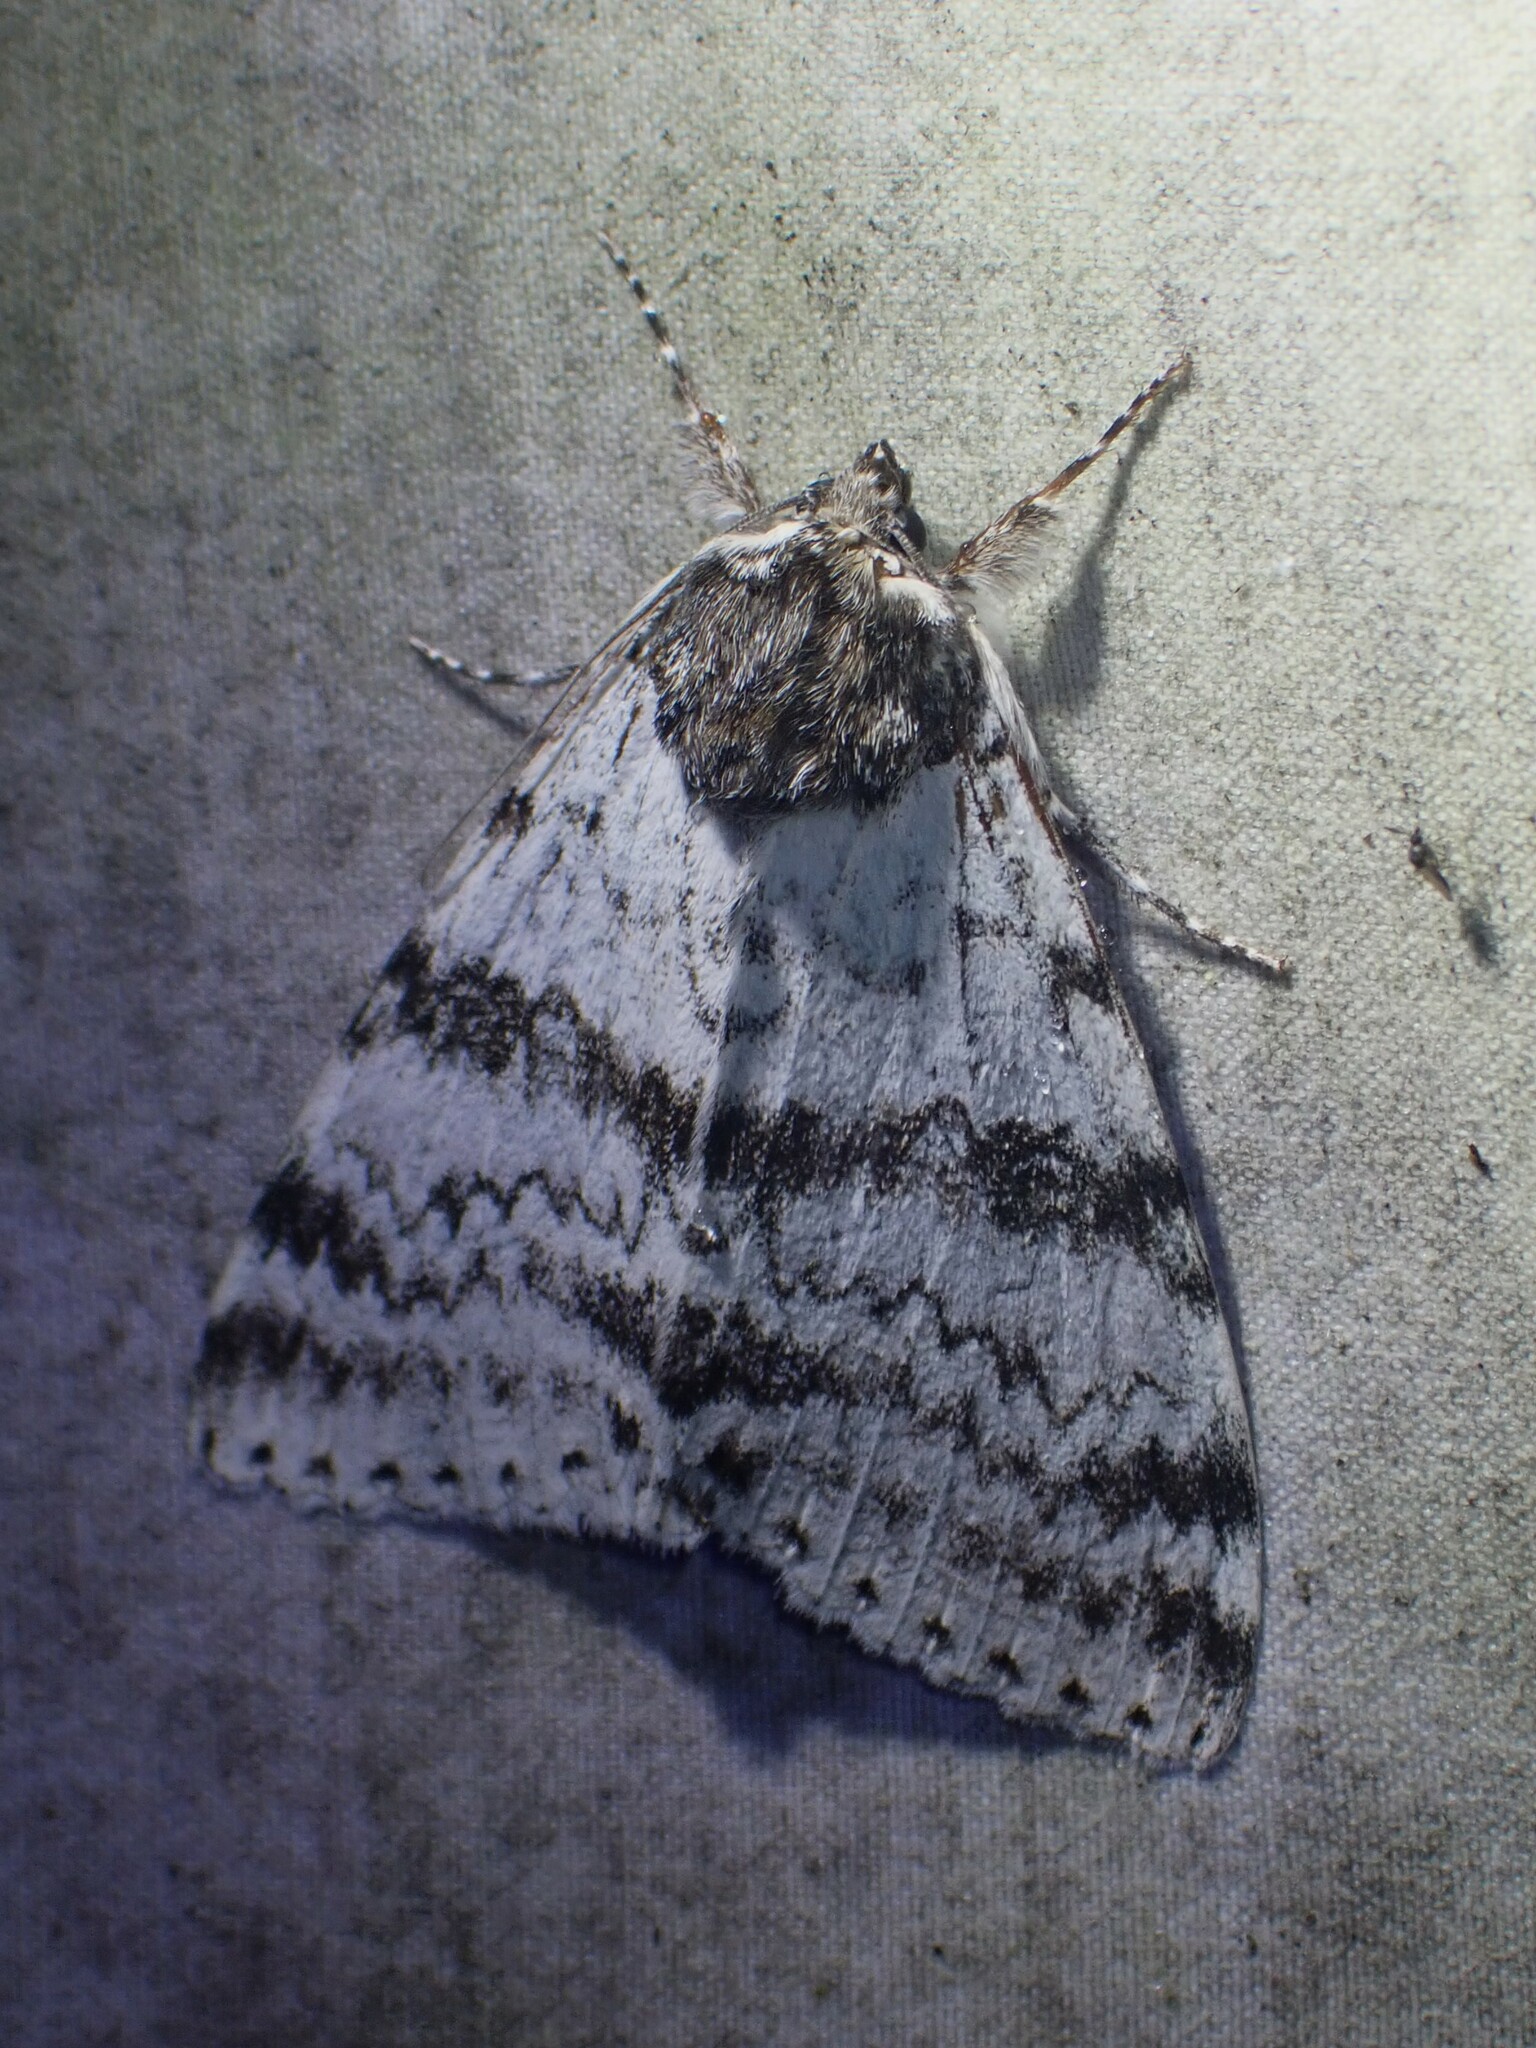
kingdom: Animalia
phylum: Arthropoda
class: Insecta
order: Lepidoptera
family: Erebidae
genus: Catocala
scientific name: Catocala relicta
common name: White underwing
